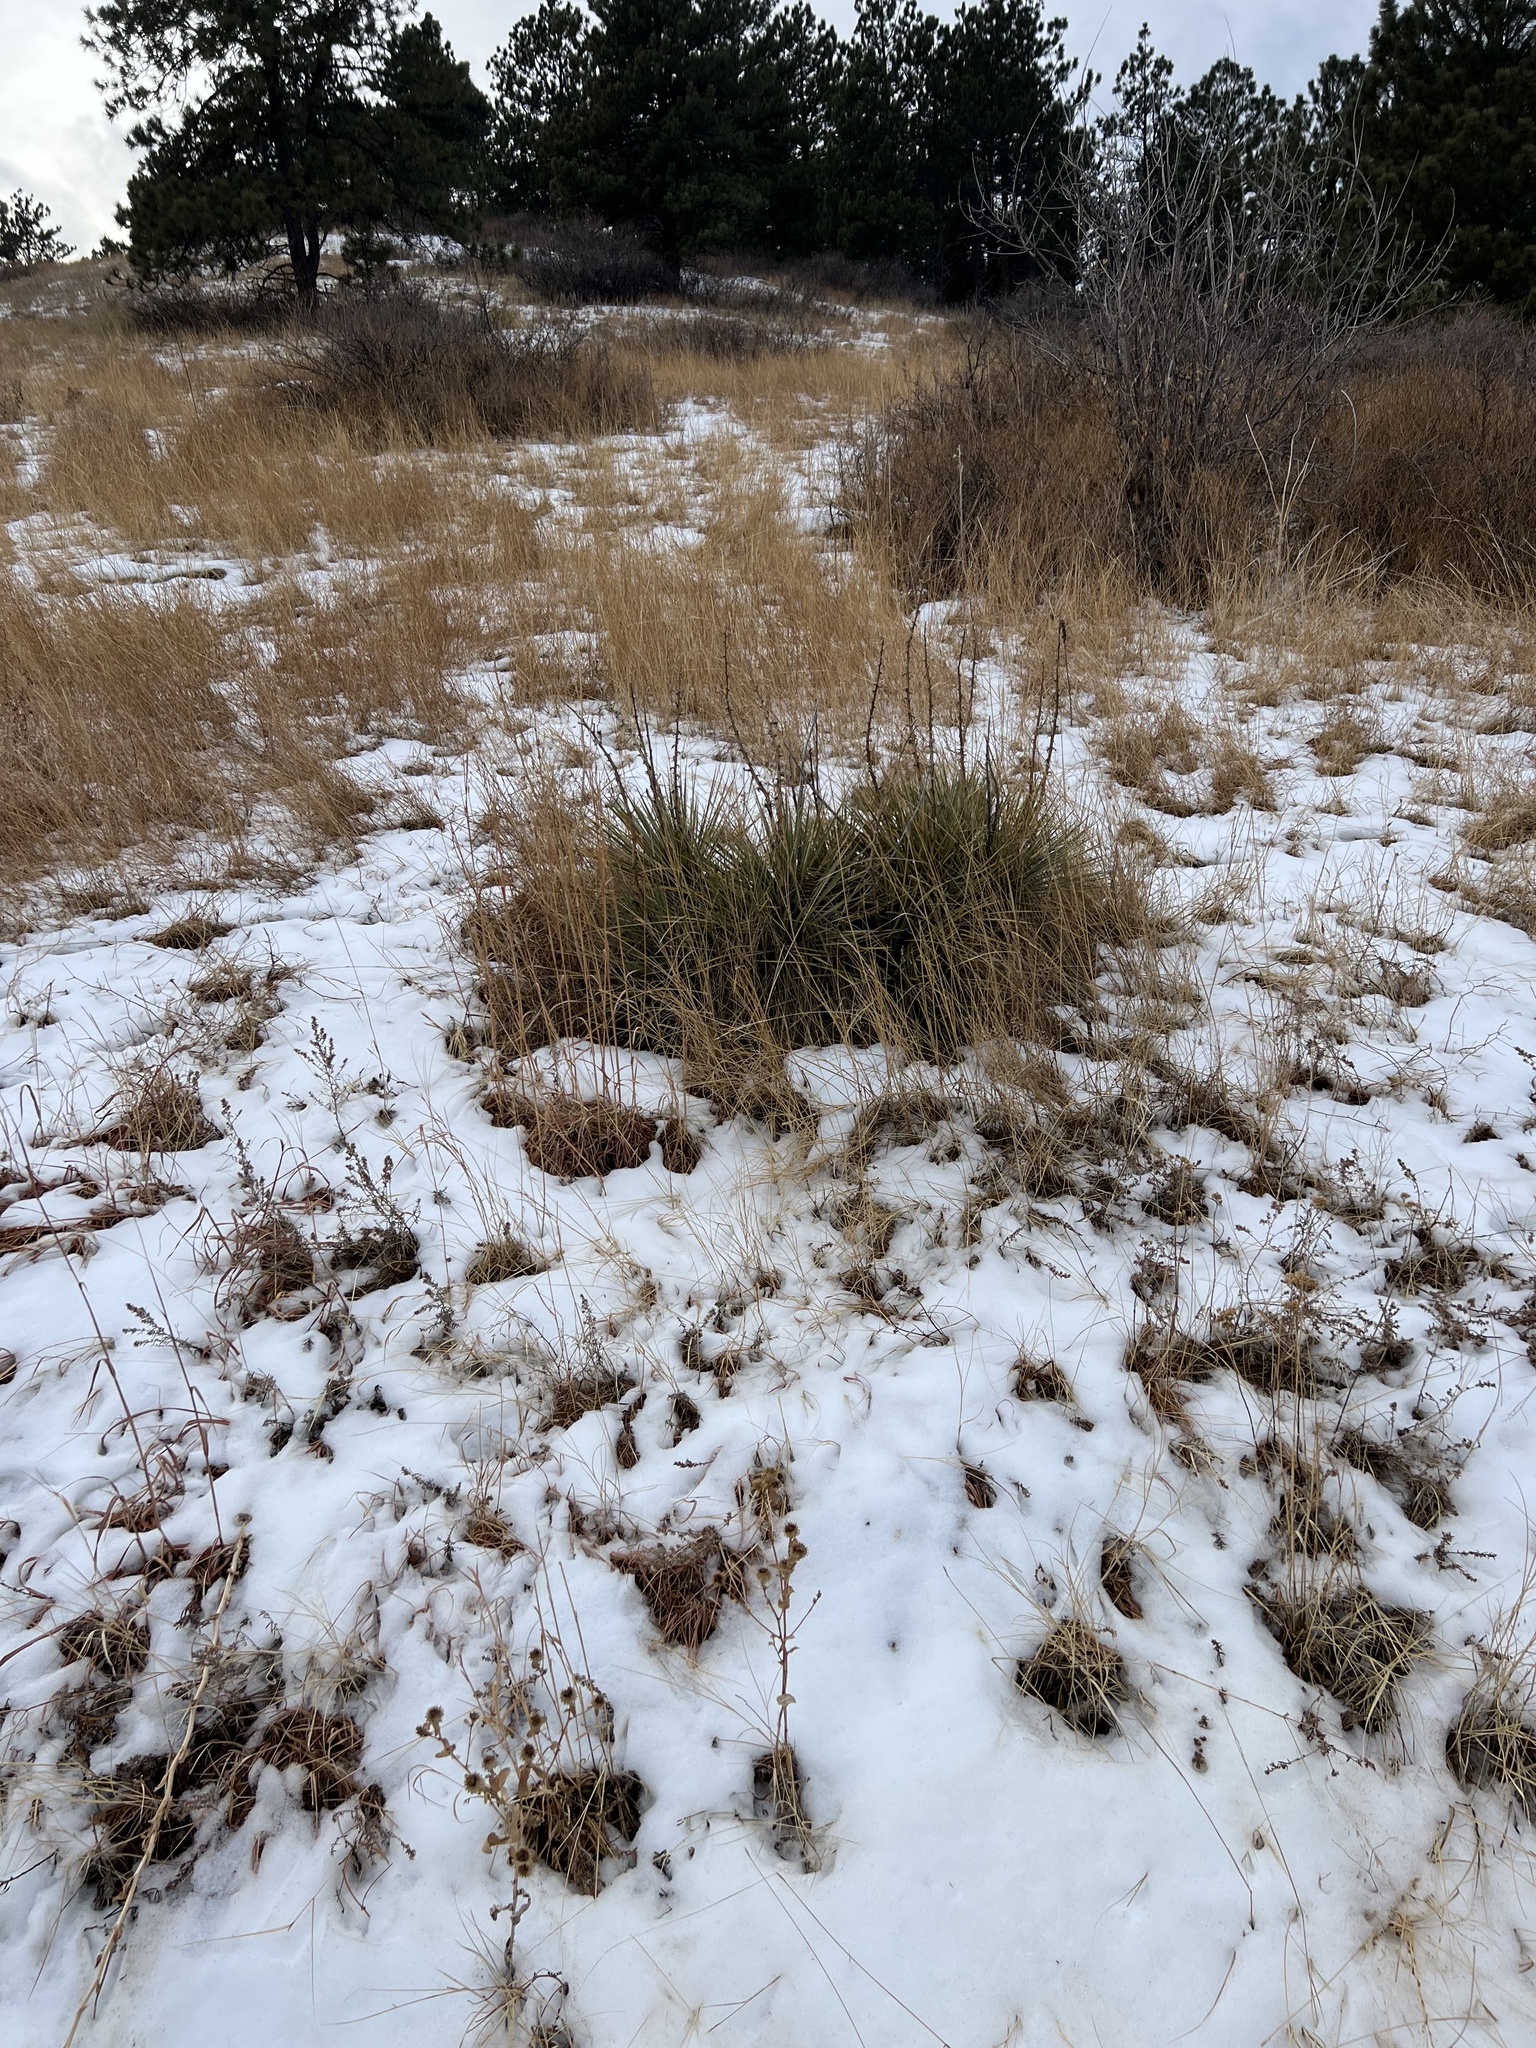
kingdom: Plantae
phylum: Tracheophyta
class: Liliopsida
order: Asparagales
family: Asparagaceae
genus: Yucca
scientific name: Yucca glauca
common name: Great plains yucca
